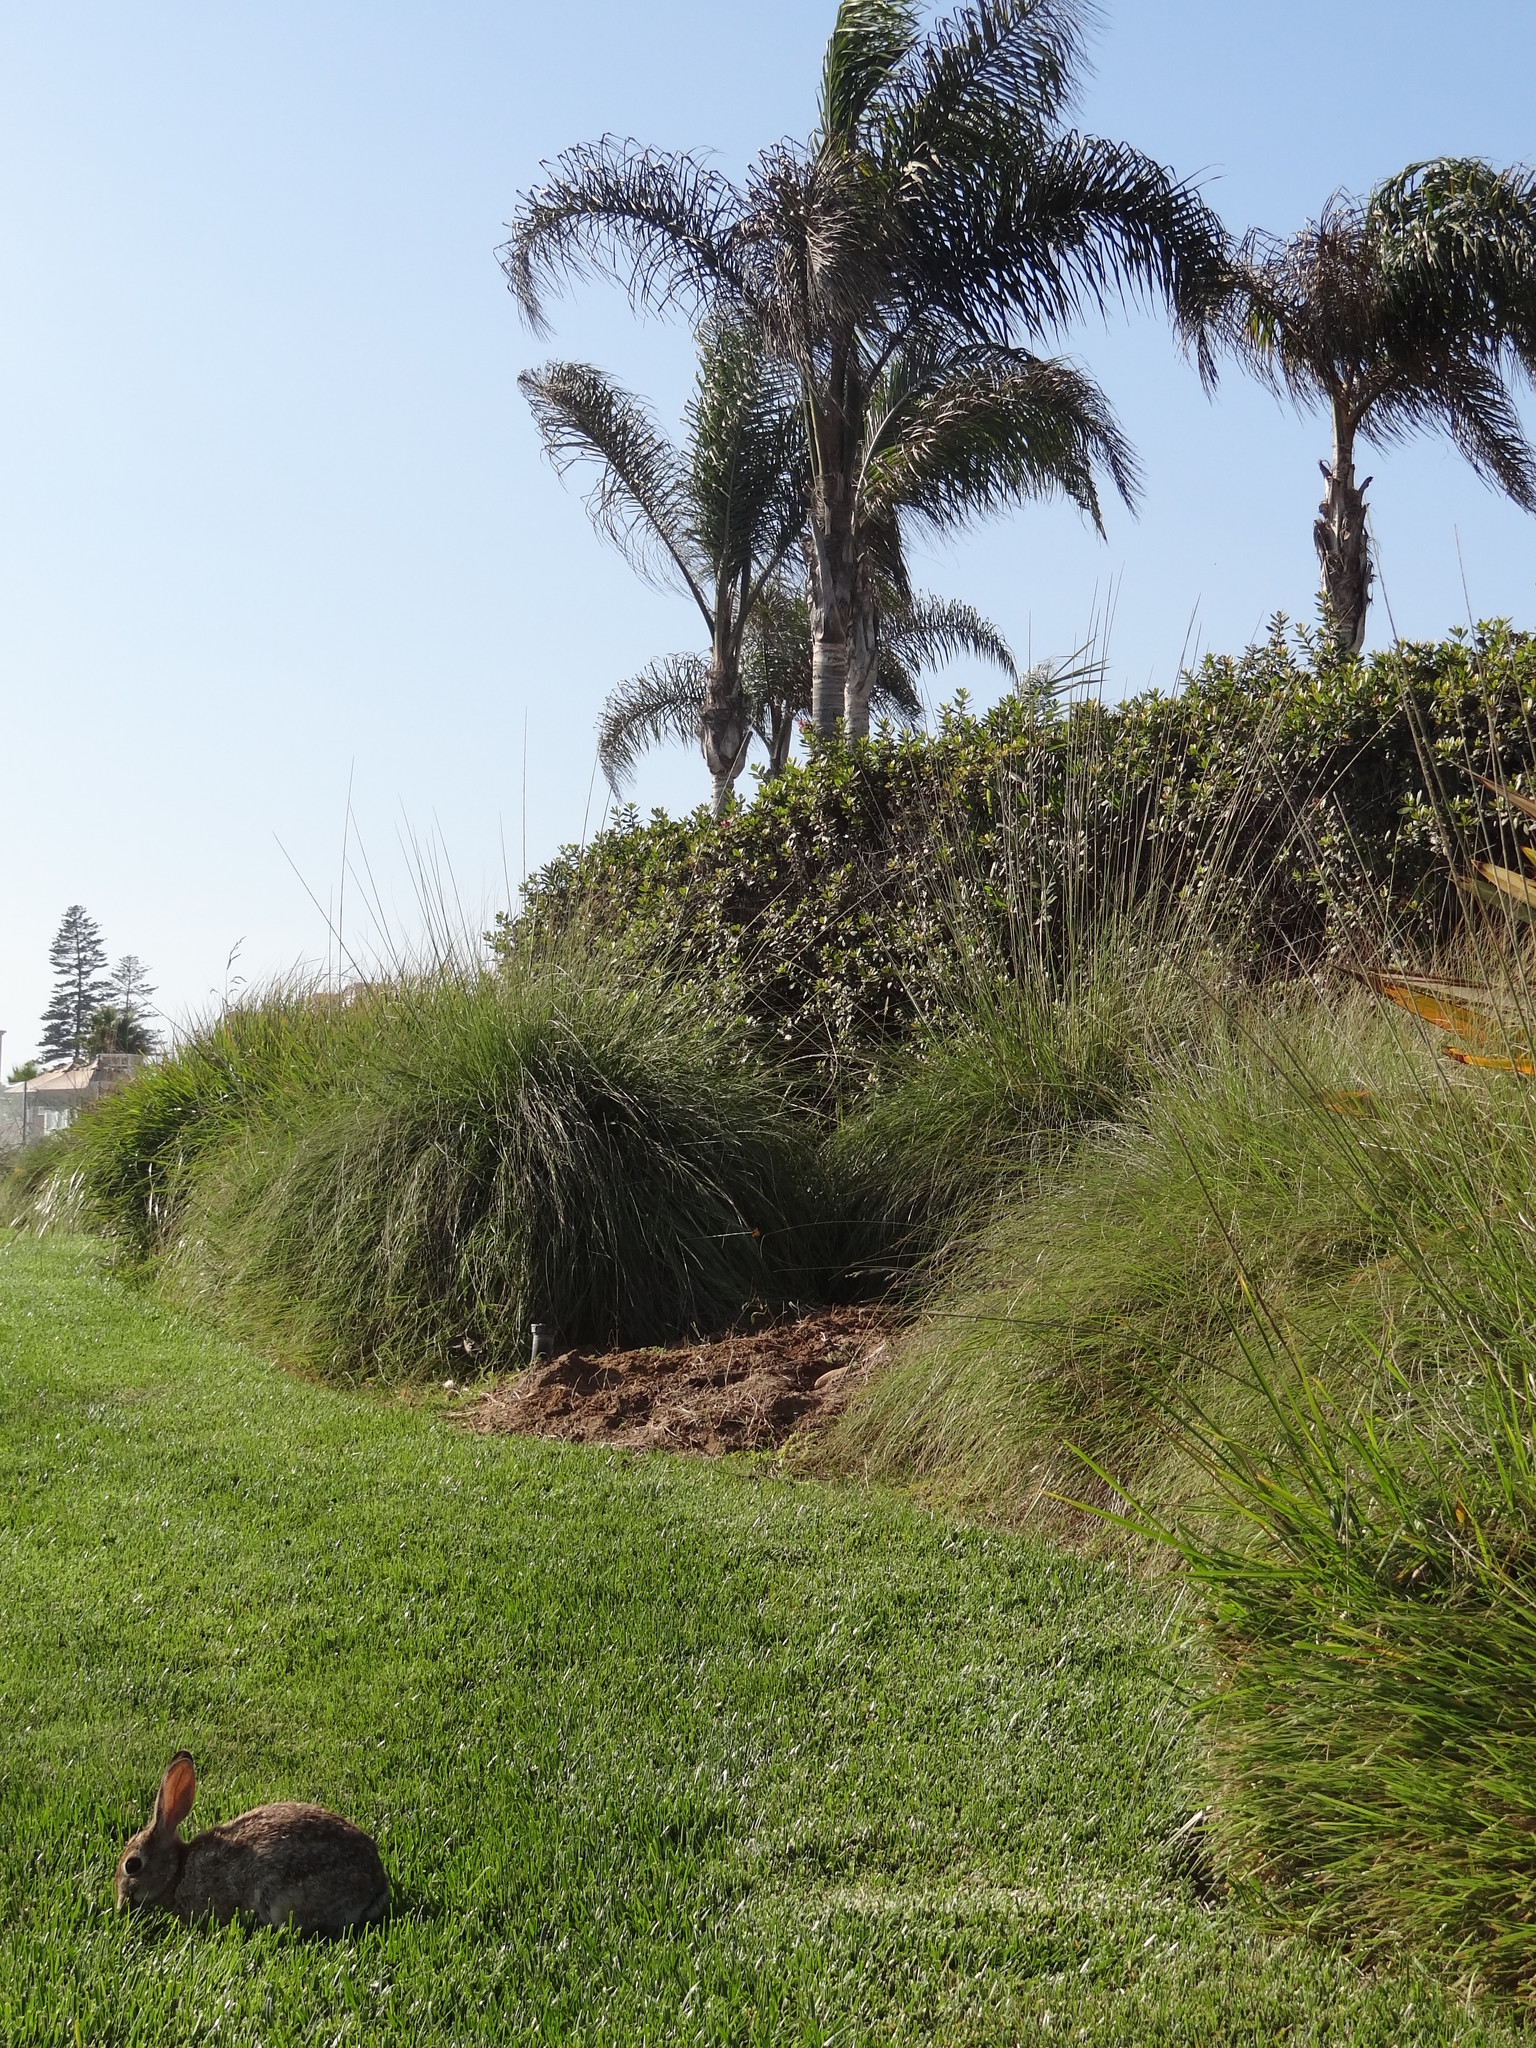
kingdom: Animalia
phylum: Chordata
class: Mammalia
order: Lagomorpha
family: Leporidae
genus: Sylvilagus
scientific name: Sylvilagus audubonii
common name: Desert cottontail
